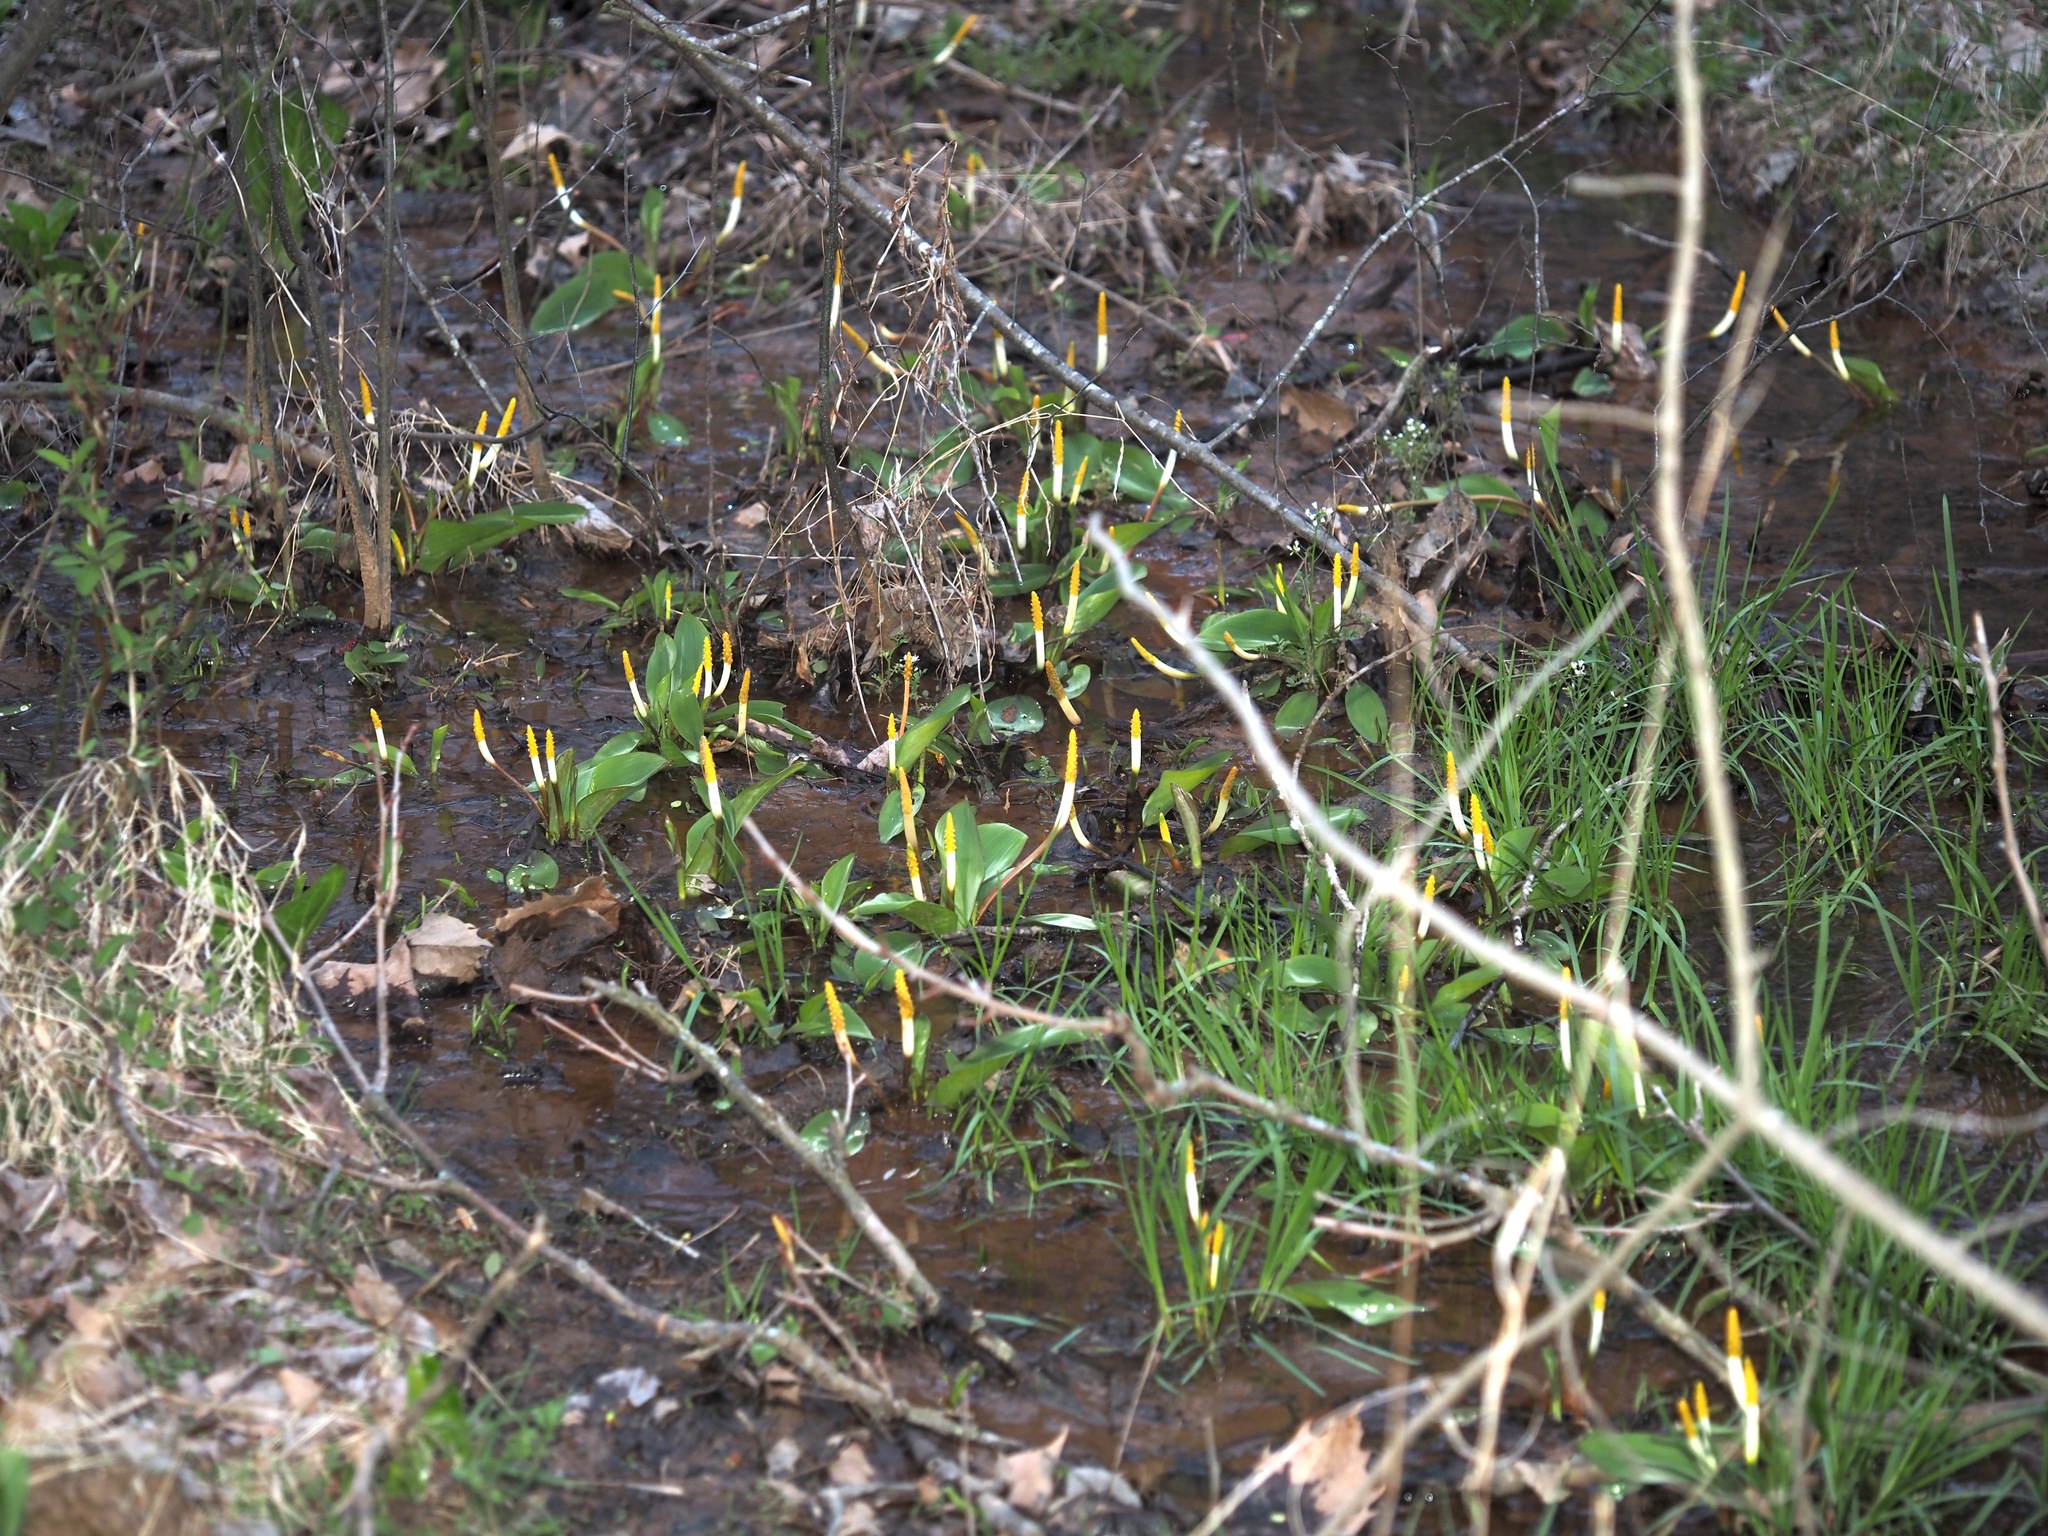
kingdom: Plantae
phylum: Tracheophyta
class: Liliopsida
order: Alismatales
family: Araceae
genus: Orontium
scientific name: Orontium aquaticum
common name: Golden-club
